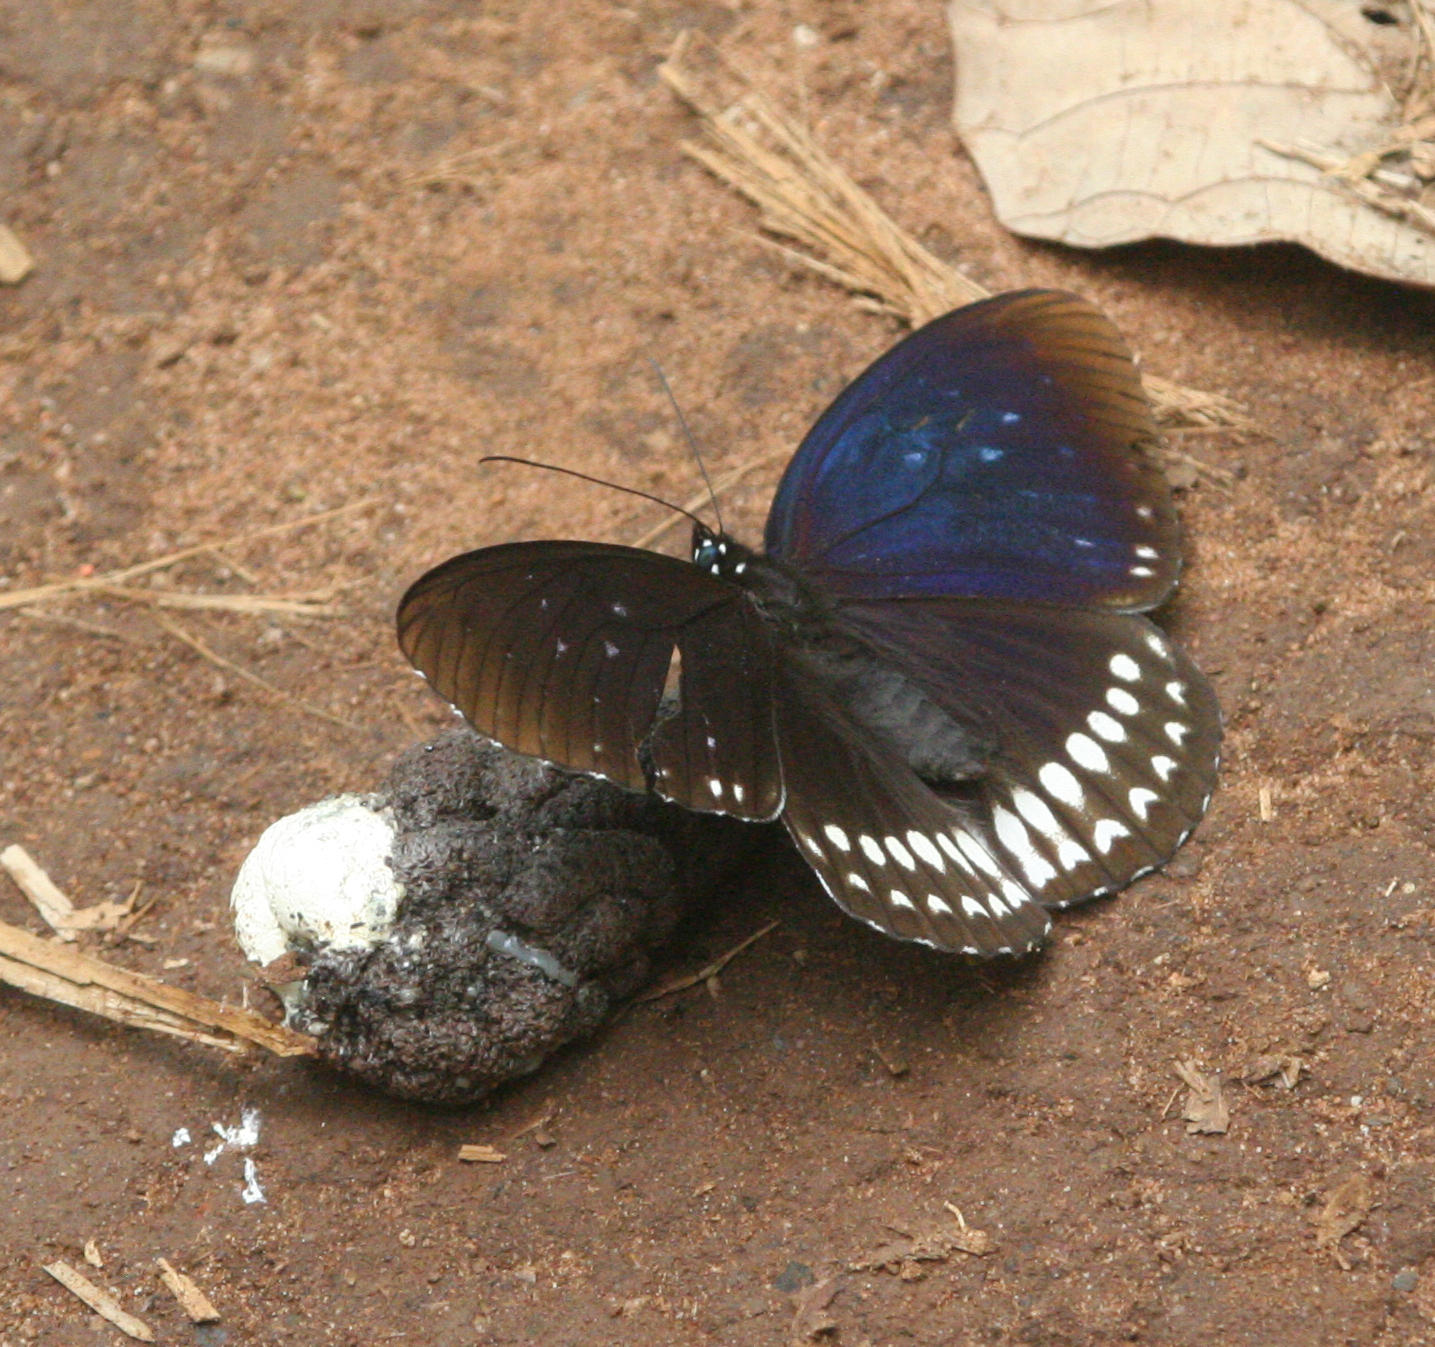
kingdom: Animalia
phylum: Arthropoda
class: Insecta
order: Lepidoptera
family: Nymphalidae
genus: Penthema
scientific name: Penthema darlisa
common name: Three-coloured kaiser
